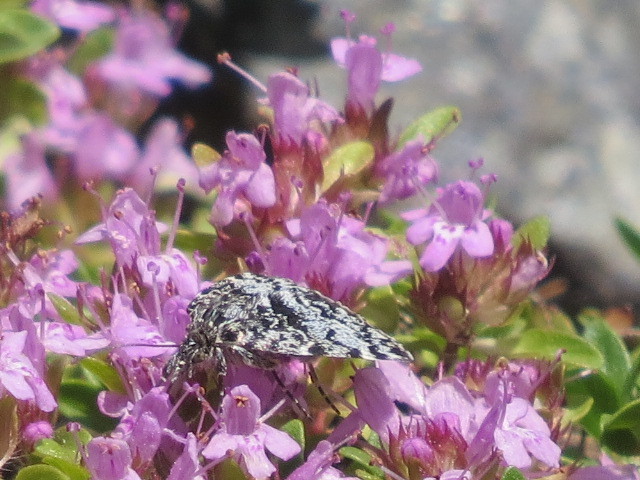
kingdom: Animalia
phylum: Arthropoda
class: Insecta
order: Lepidoptera
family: Crambidae
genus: Orenaia
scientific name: Orenaia alpestralis
